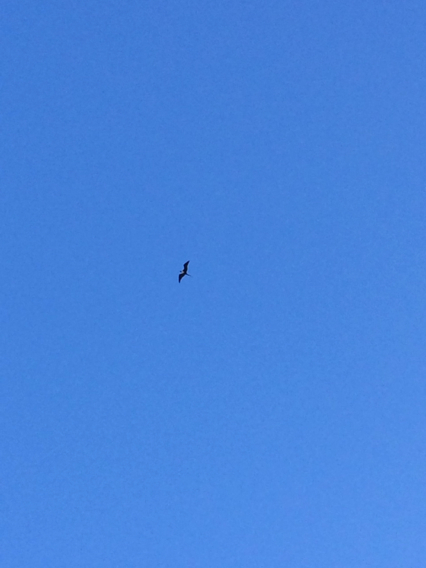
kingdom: Animalia
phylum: Chordata
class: Aves
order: Suliformes
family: Fregatidae
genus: Fregata
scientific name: Fregata magnificens
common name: Magnificent frigatebird
